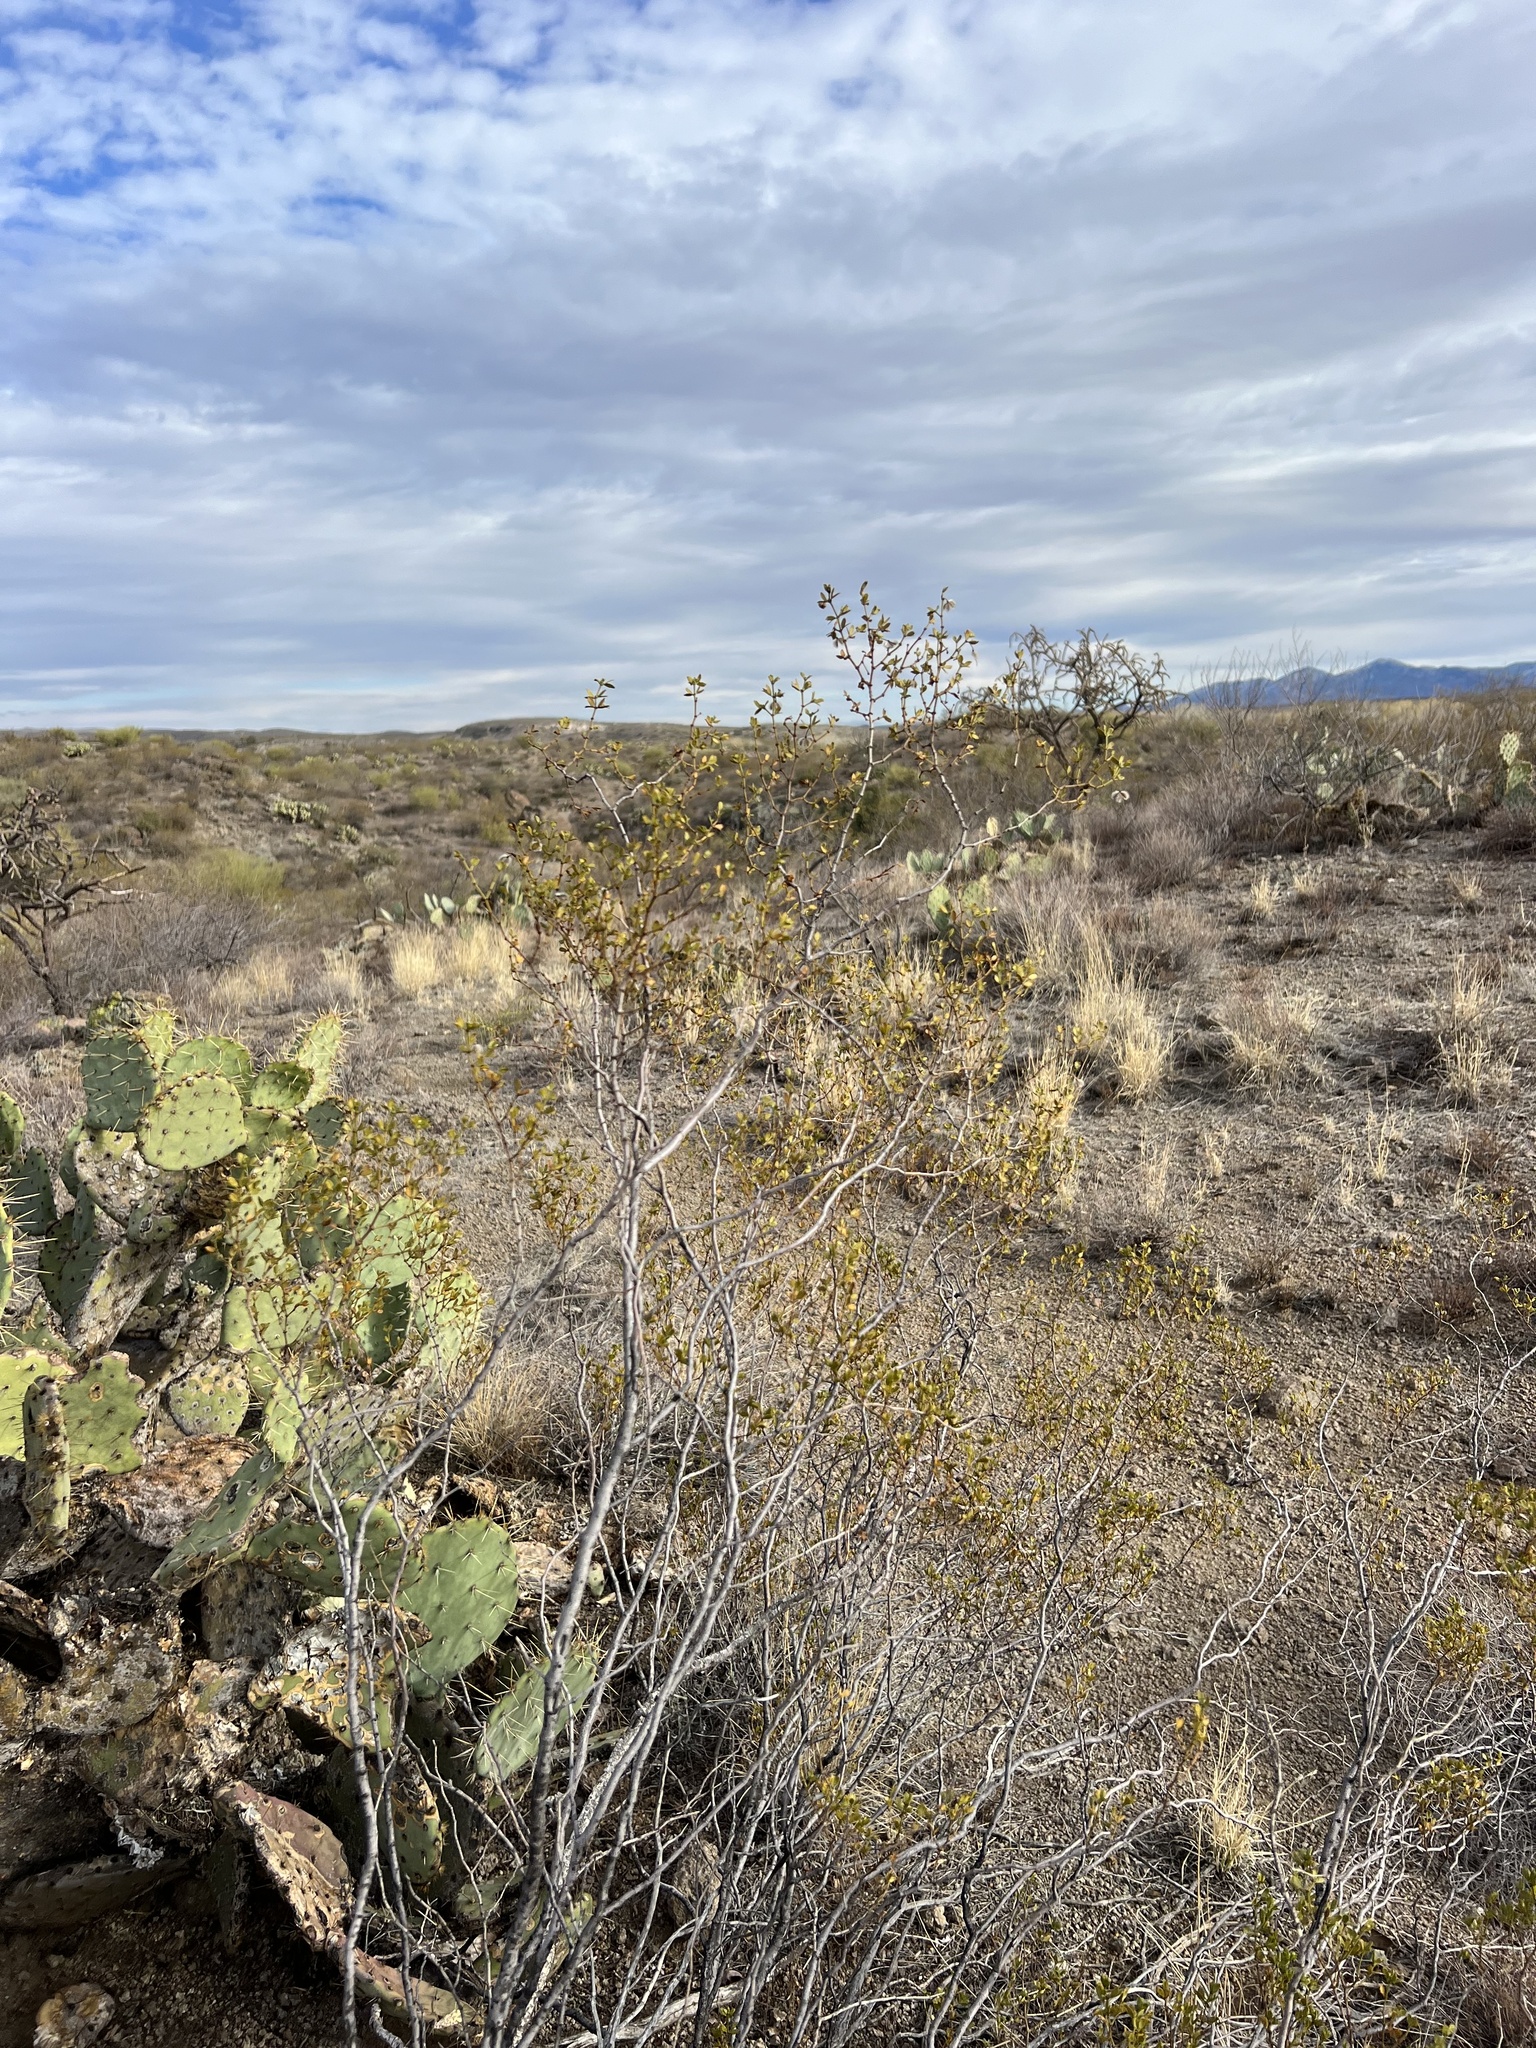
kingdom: Plantae
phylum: Tracheophyta
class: Magnoliopsida
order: Zygophyllales
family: Zygophyllaceae
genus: Larrea
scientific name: Larrea tridentata
